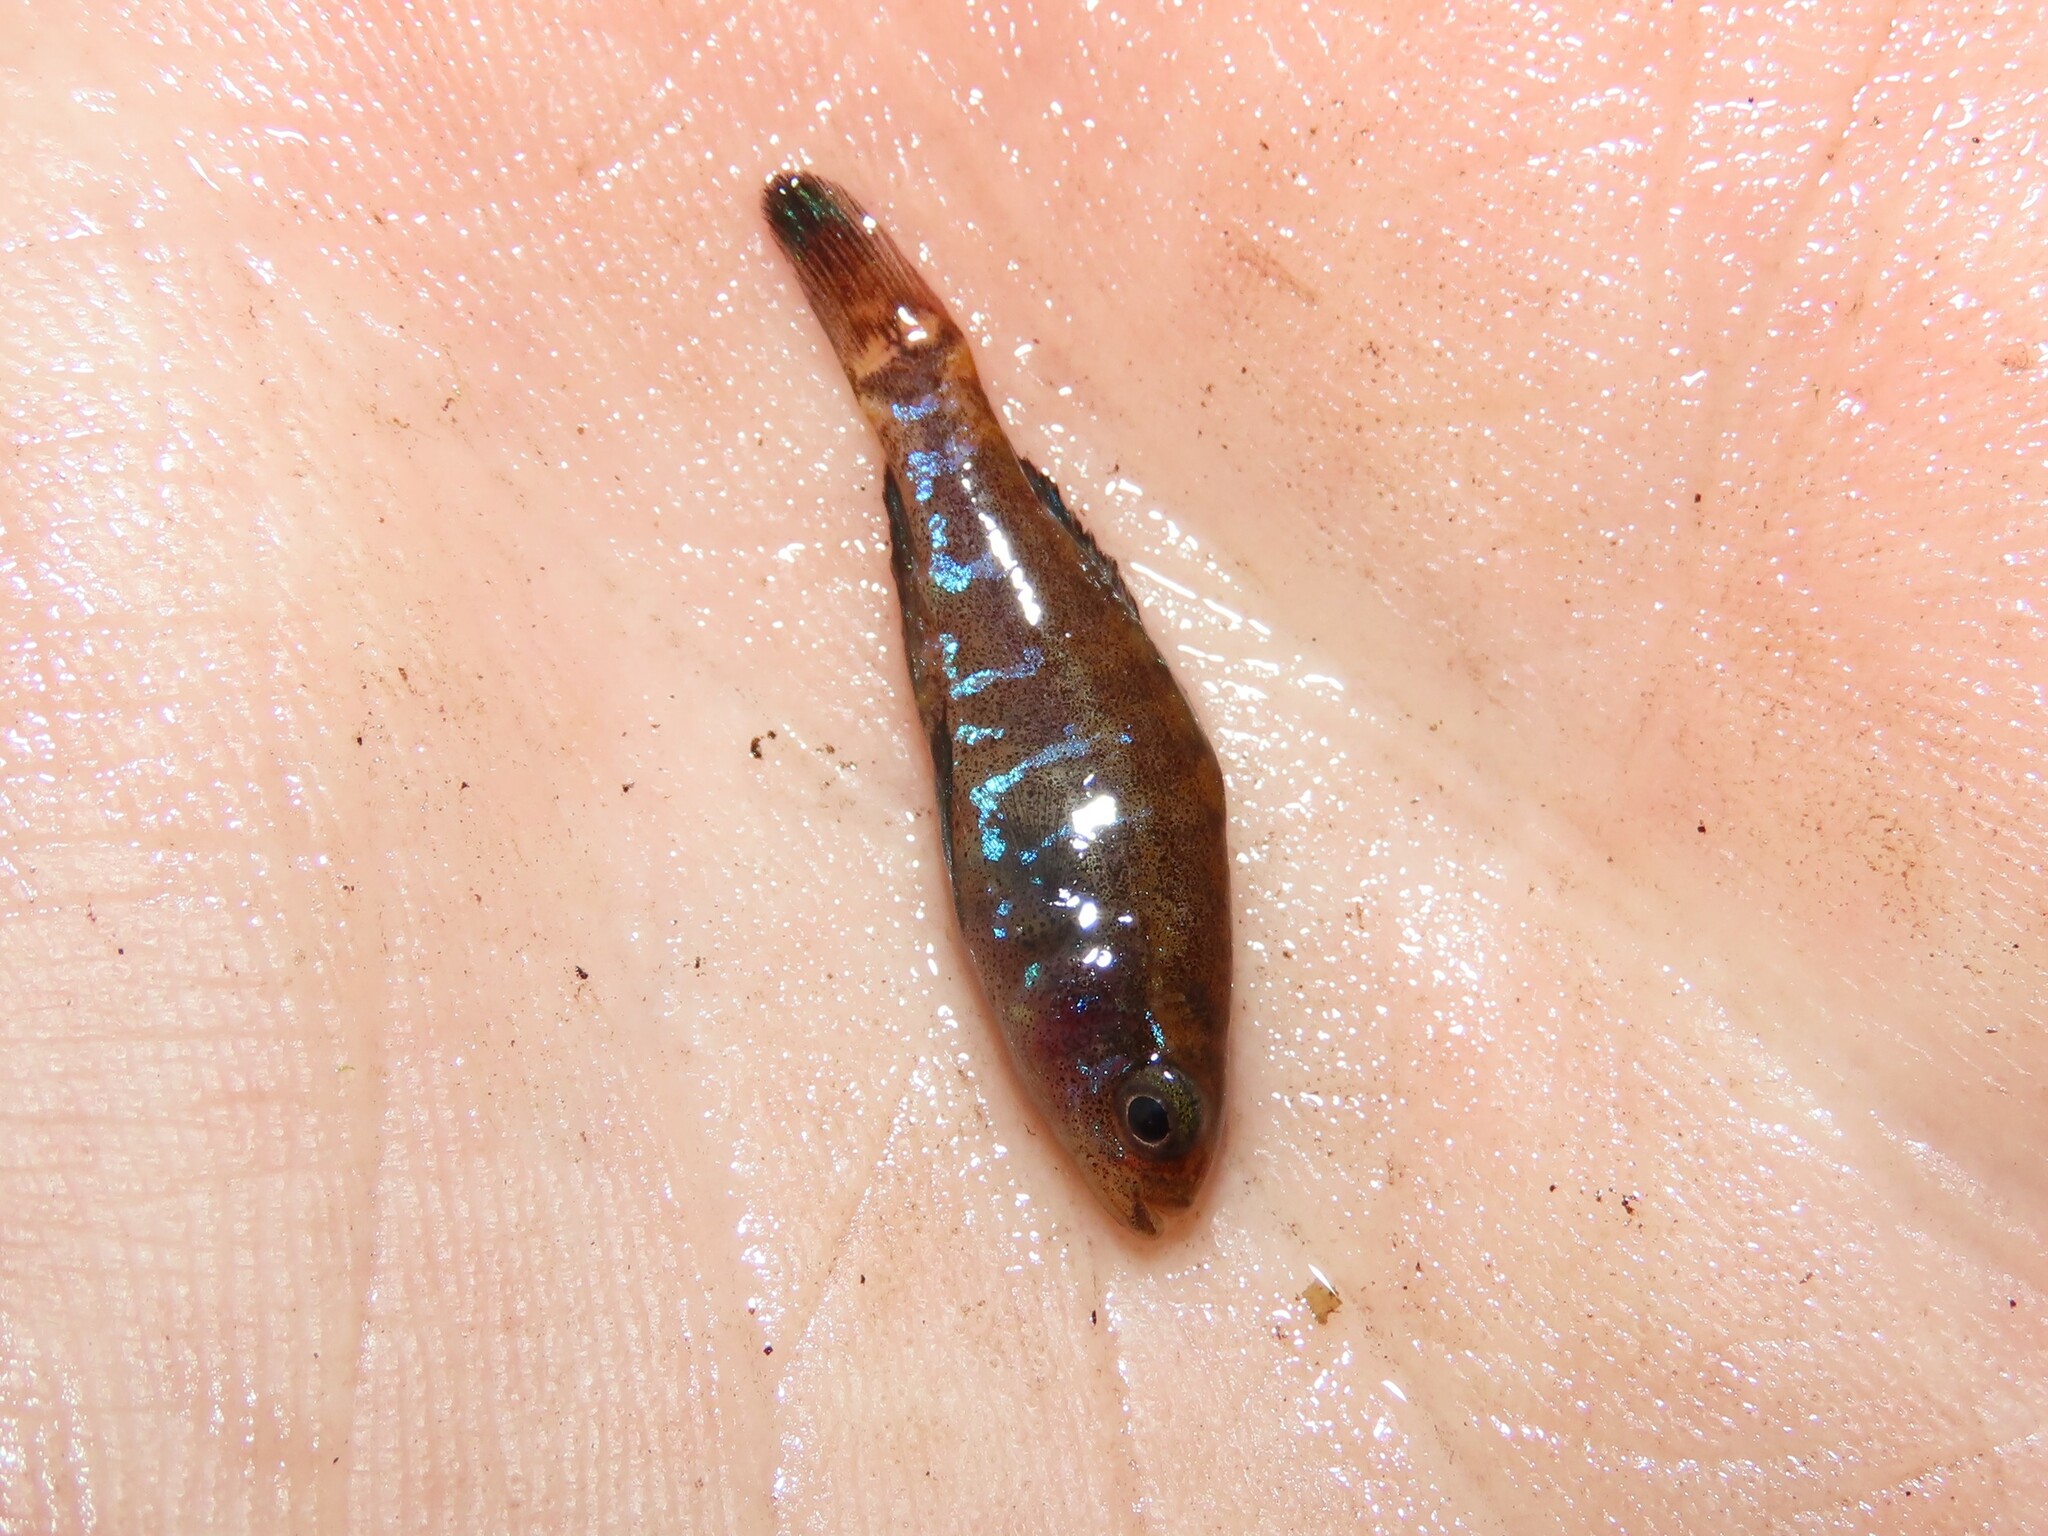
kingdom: Animalia
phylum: Chordata
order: Perciformes
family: Elassomatidae
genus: Elassoma
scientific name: Elassoma okefenokee
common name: Okefenokee pygmy sunfish
